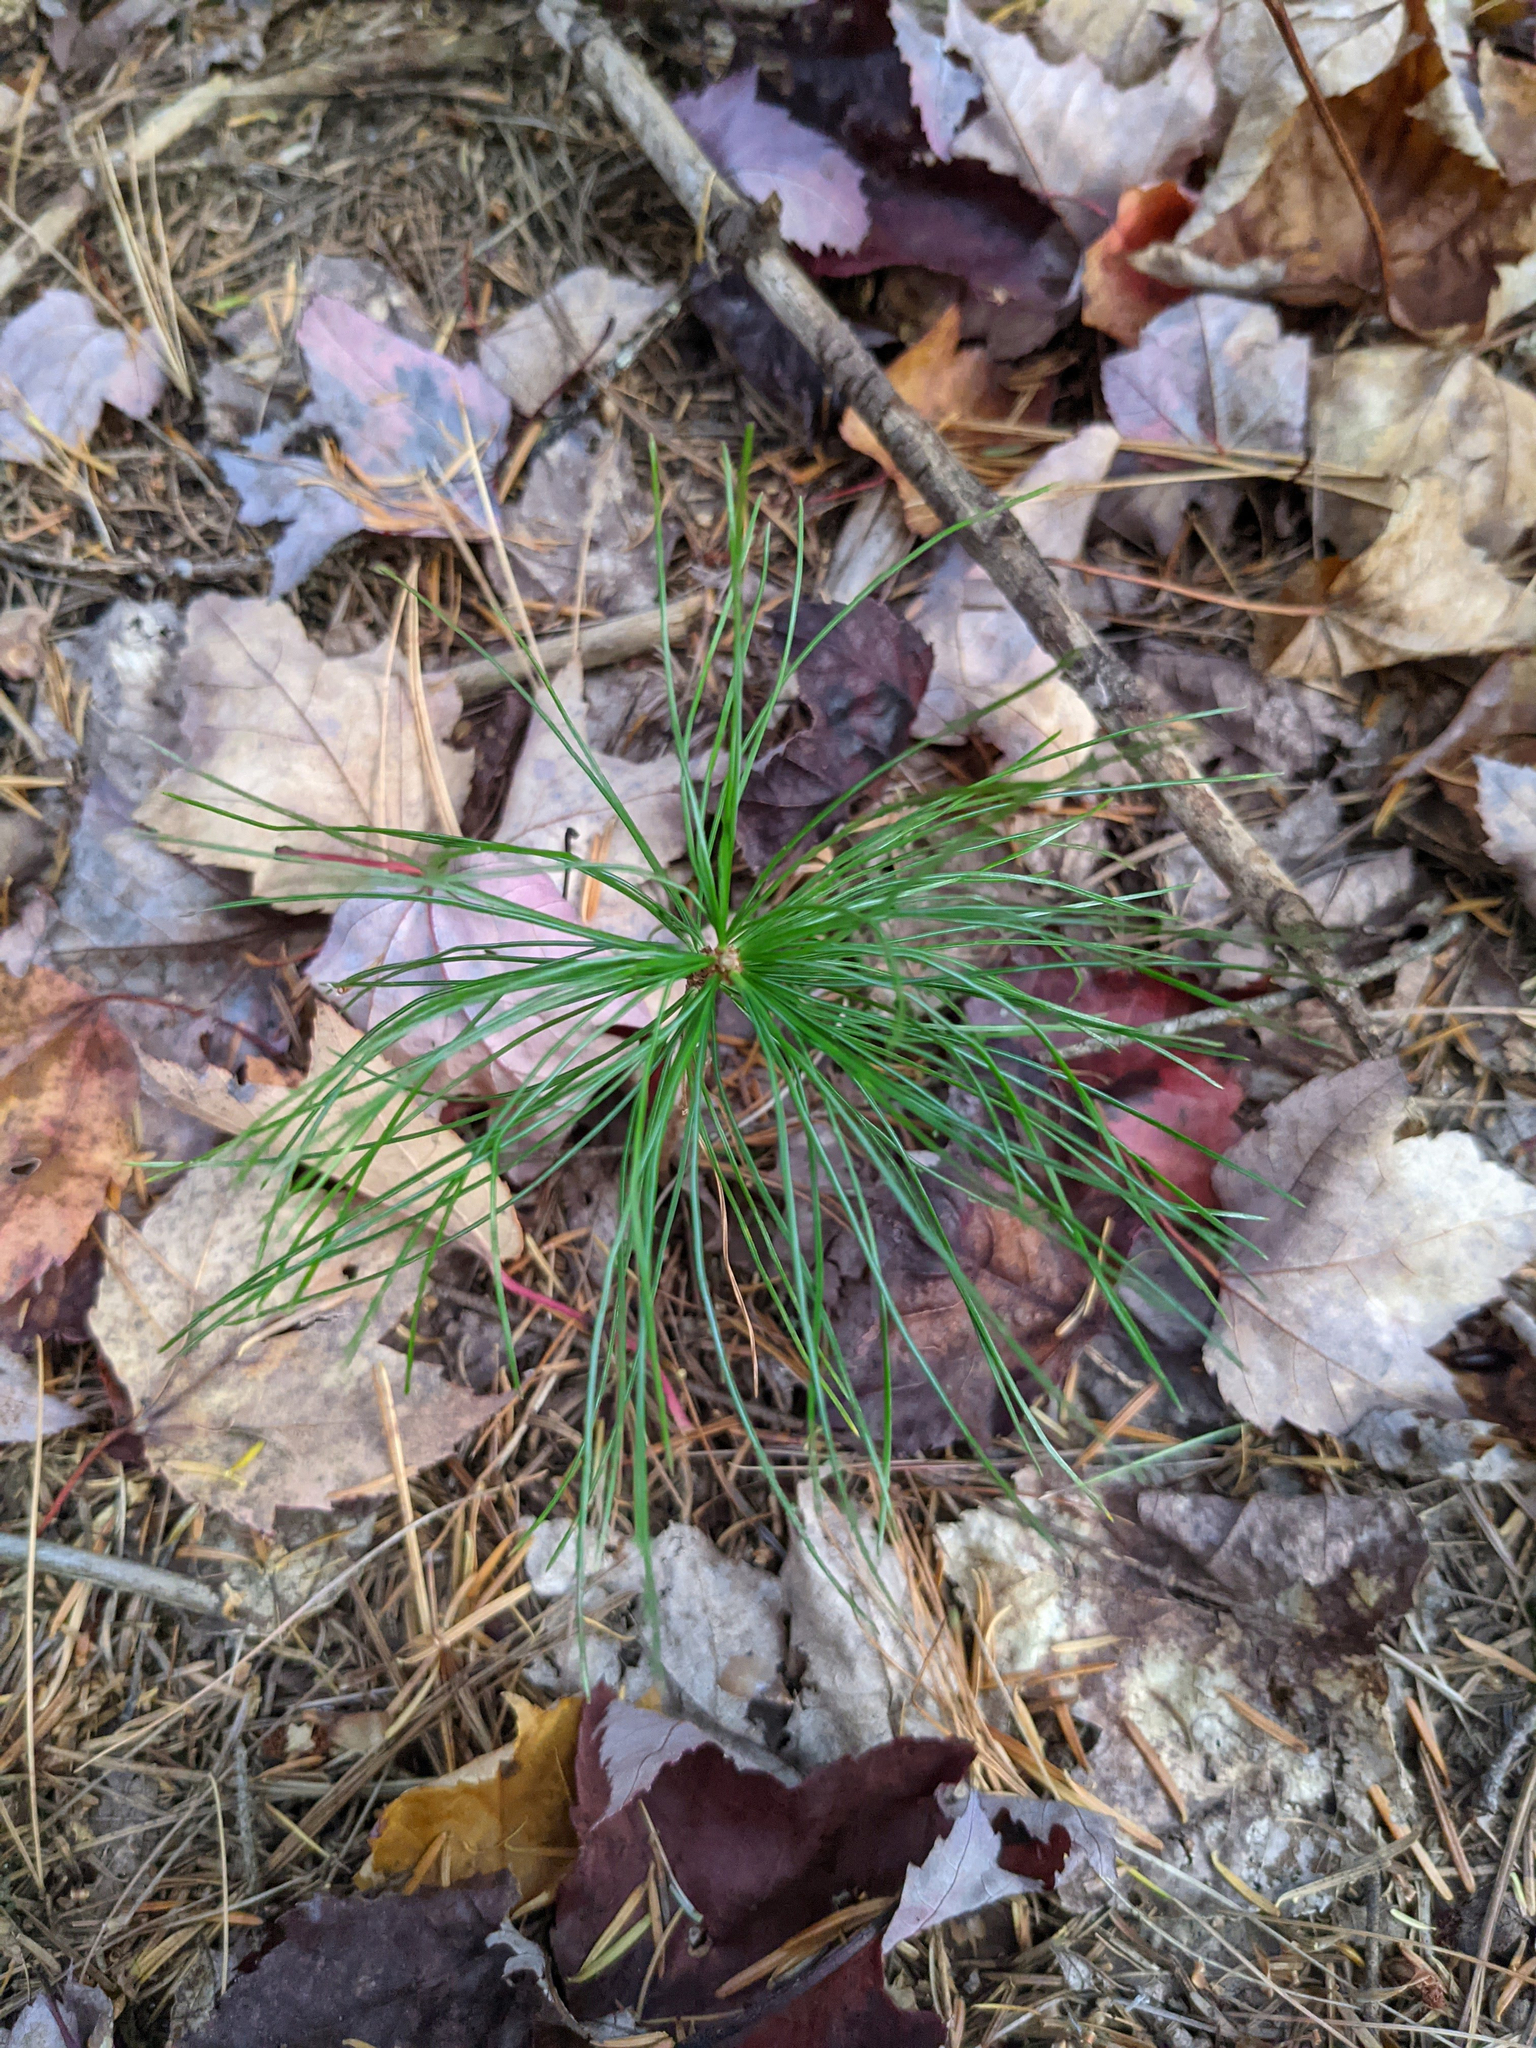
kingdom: Plantae
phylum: Tracheophyta
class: Pinopsida
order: Pinales
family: Pinaceae
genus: Pinus
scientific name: Pinus strobus
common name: Weymouth pine
